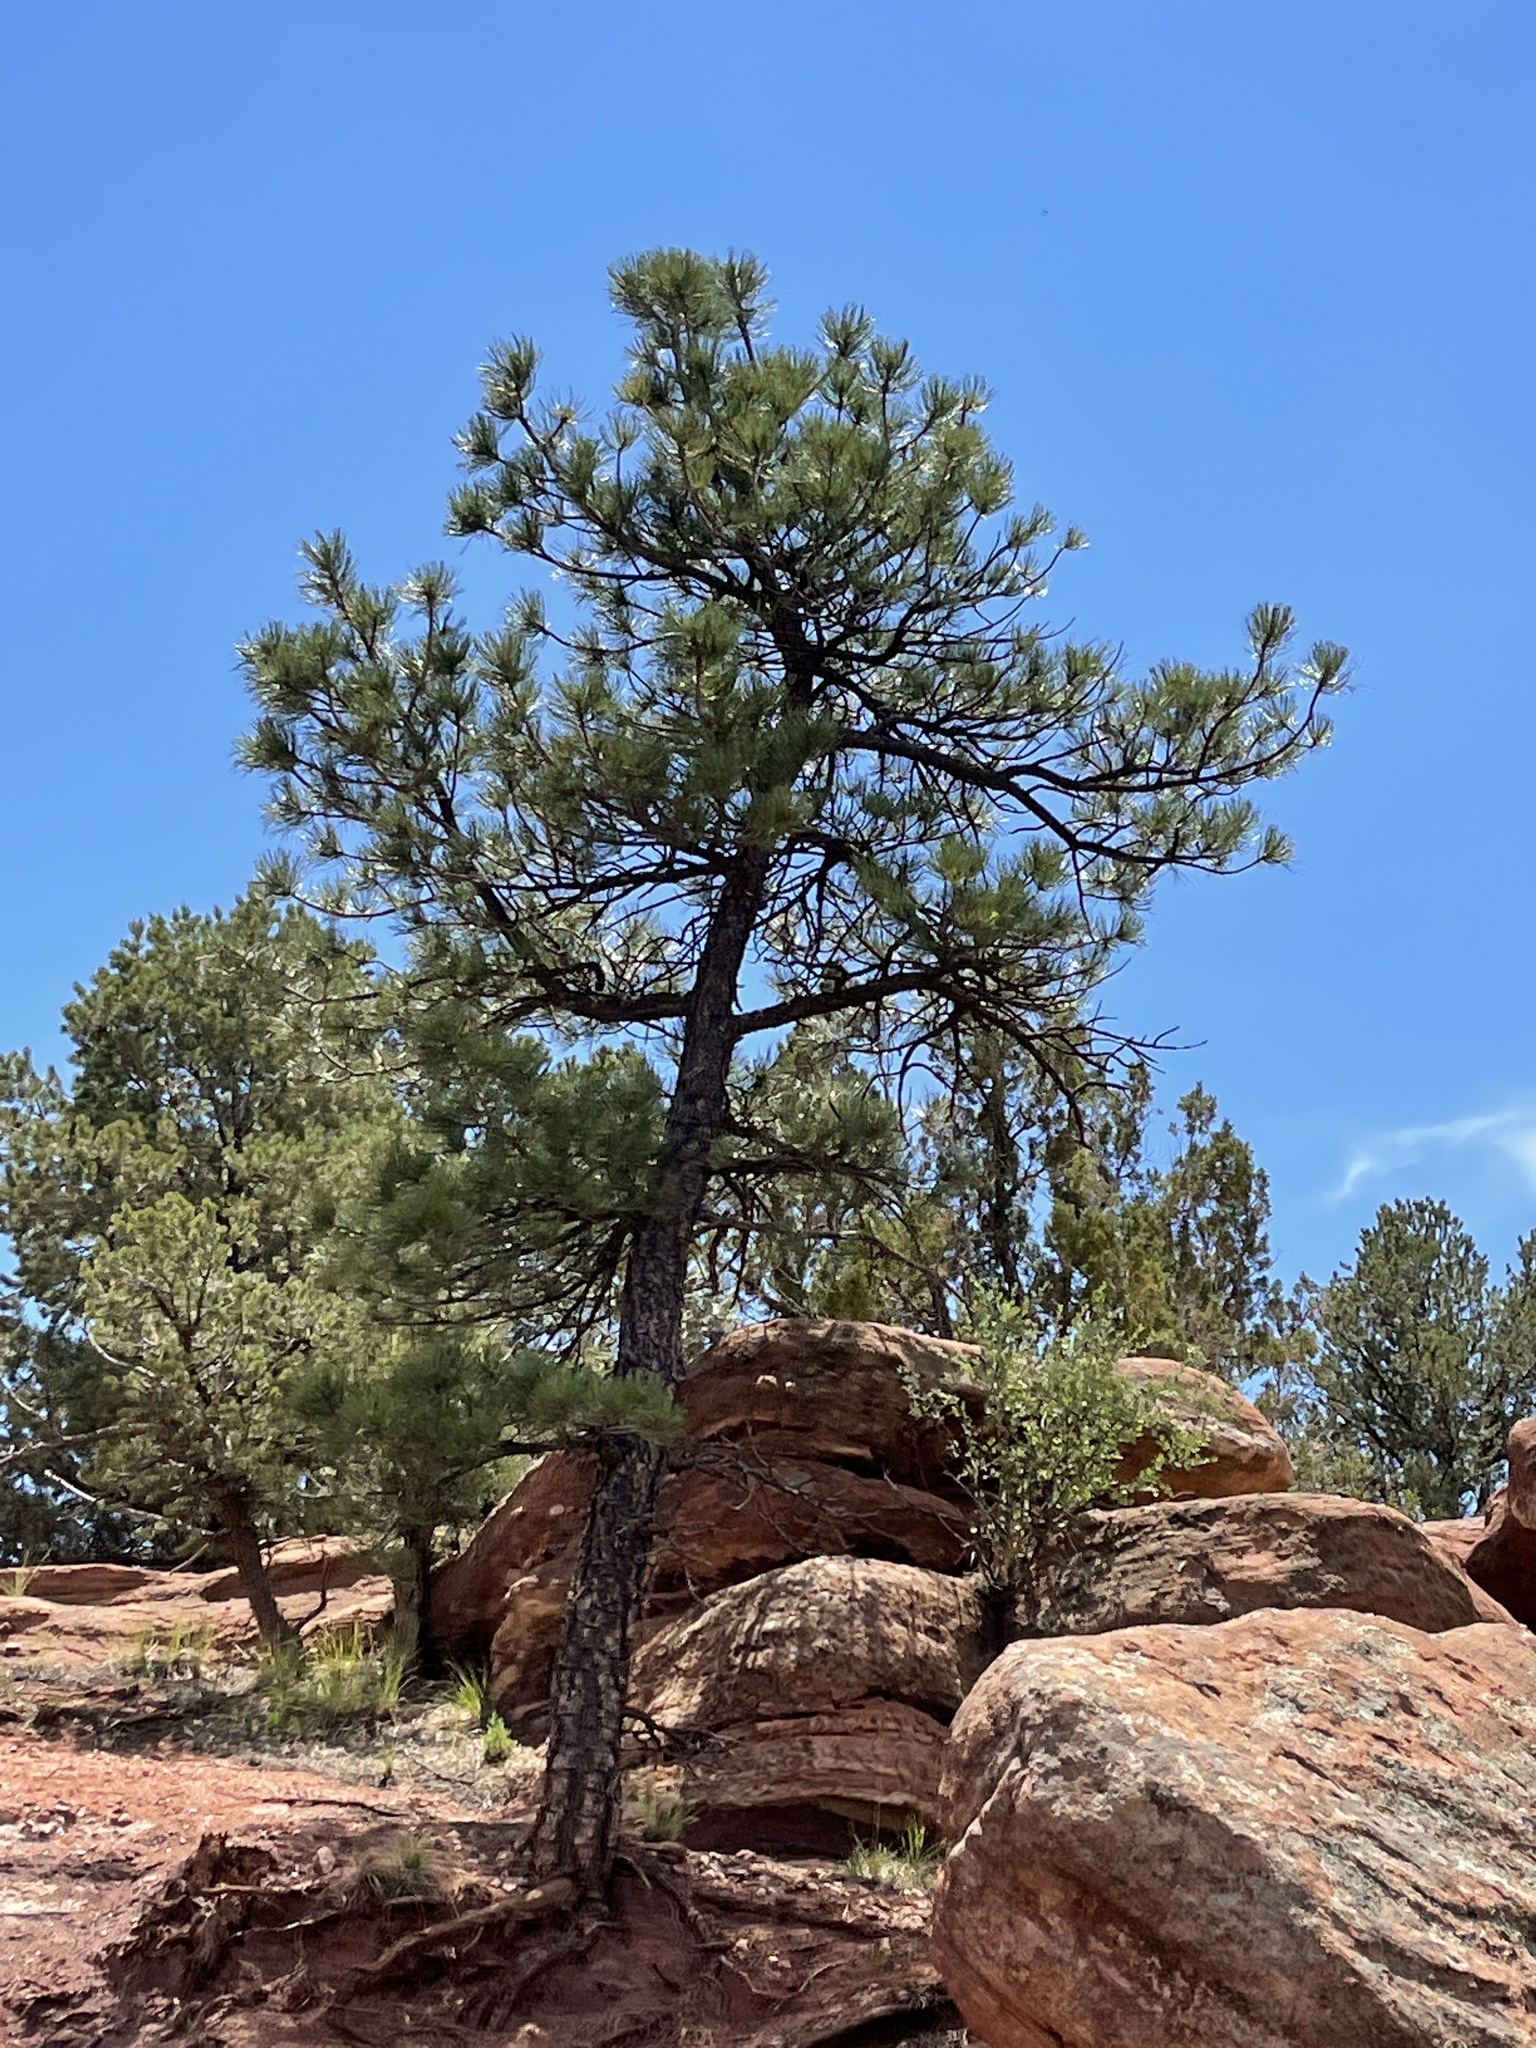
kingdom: Plantae
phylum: Tracheophyta
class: Pinopsida
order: Pinales
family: Pinaceae
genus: Pinus
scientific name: Pinus ponderosa
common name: Western yellow-pine
